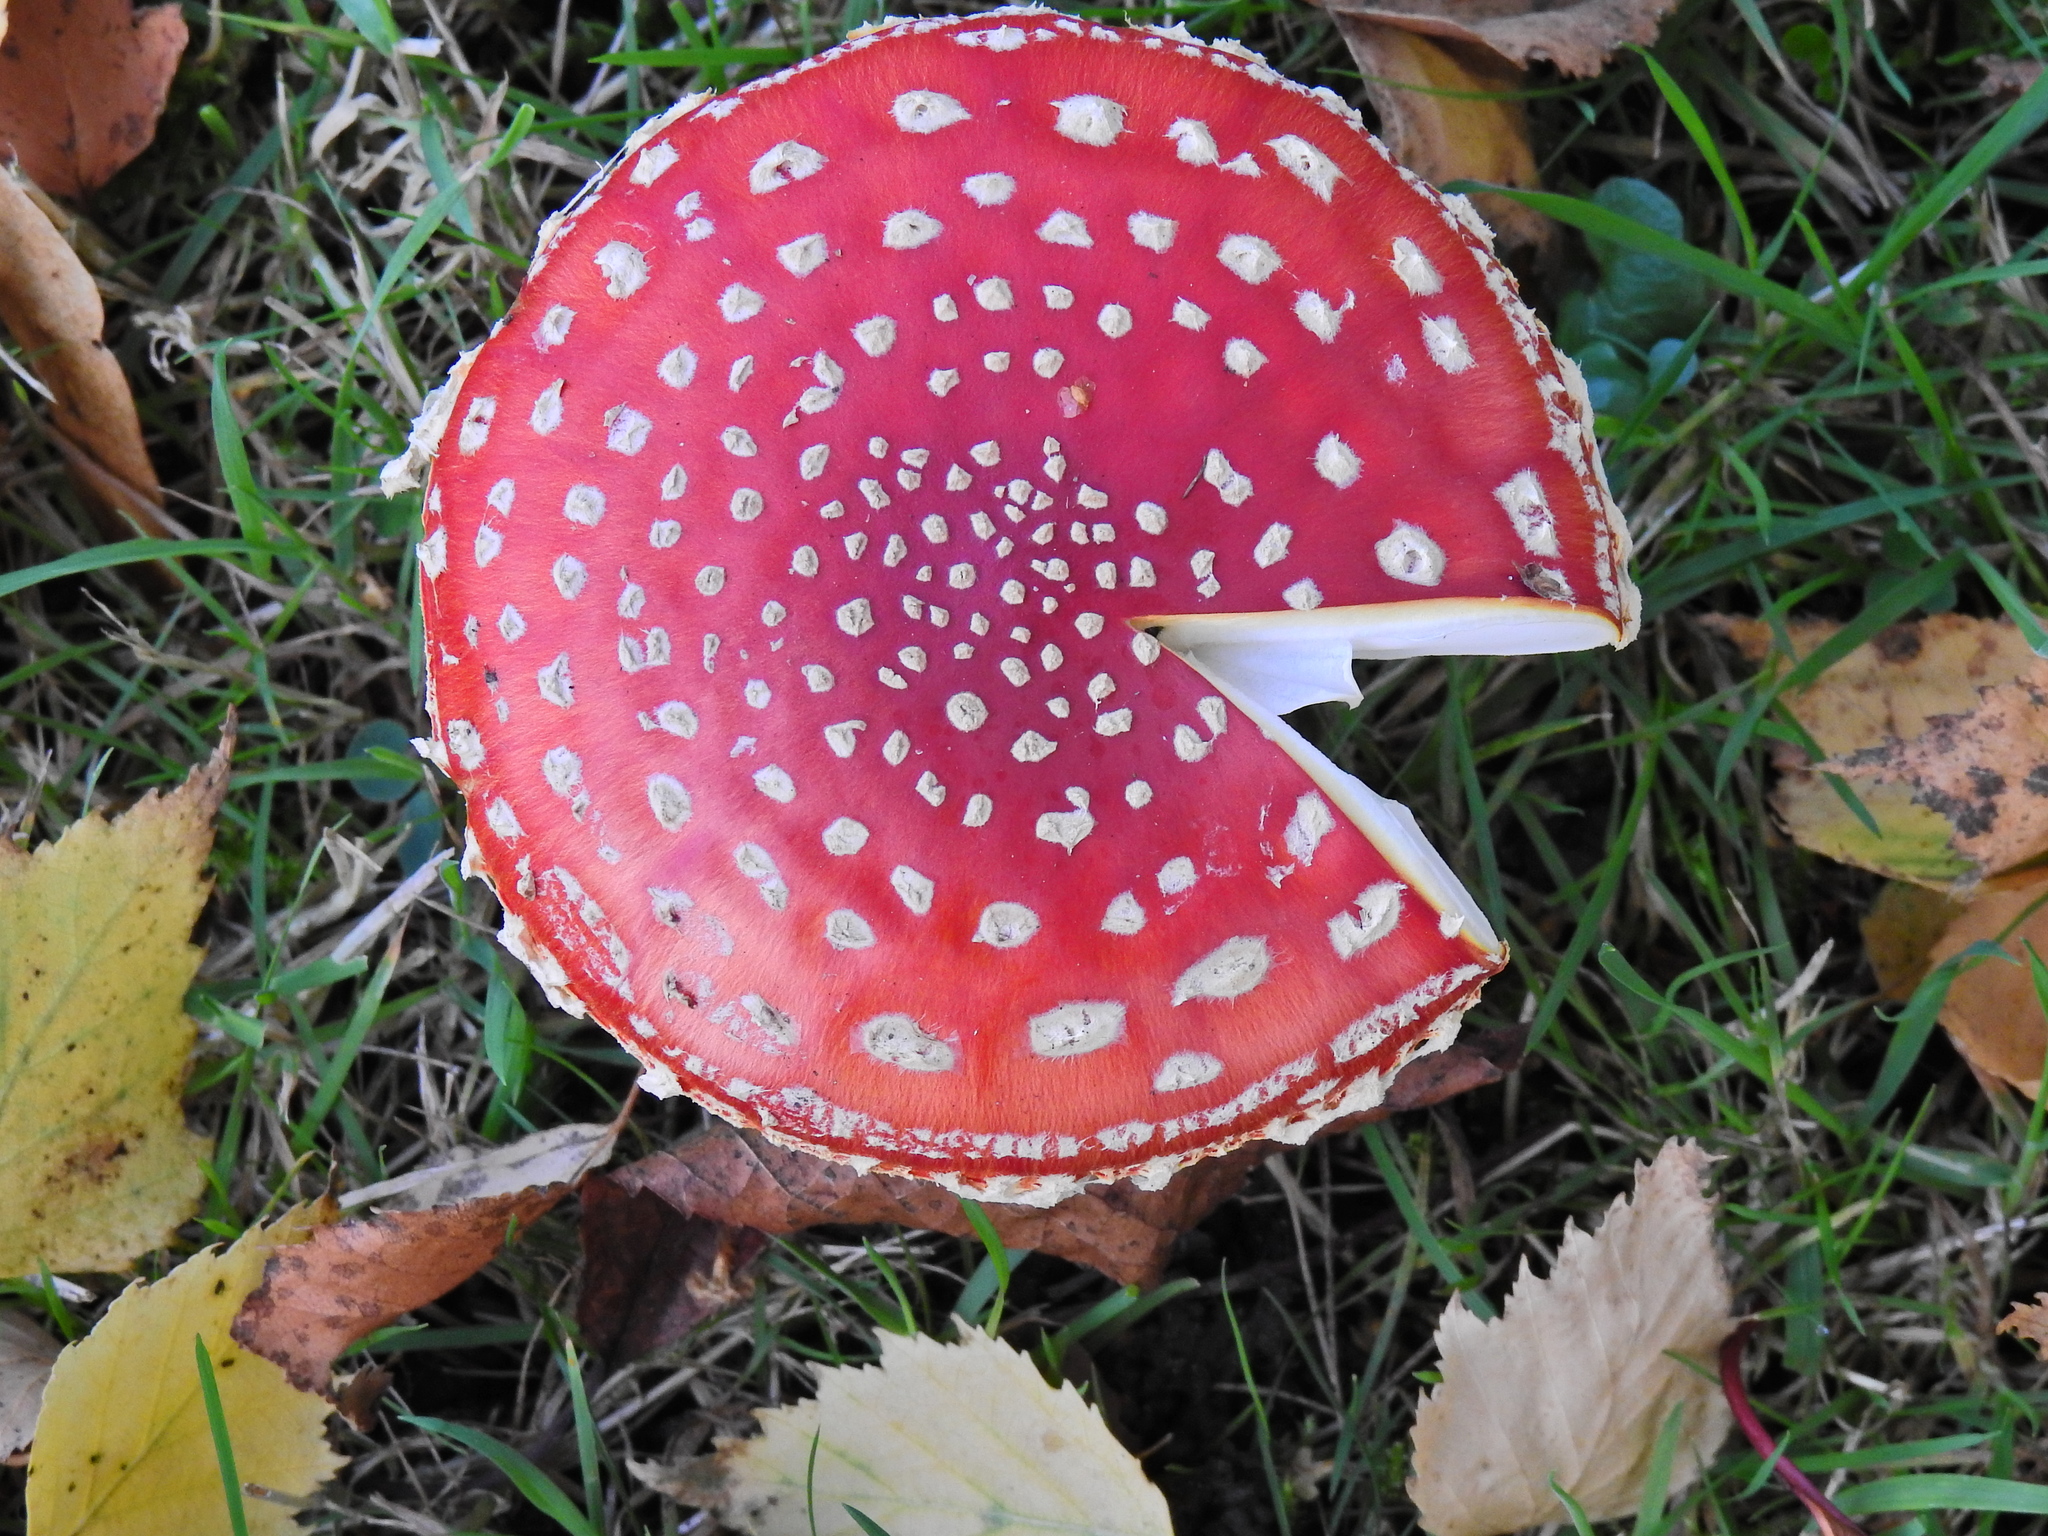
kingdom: Fungi
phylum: Basidiomycota
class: Agaricomycetes
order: Agaricales
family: Amanitaceae
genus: Amanita
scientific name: Amanita muscaria
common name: Fly agaric
